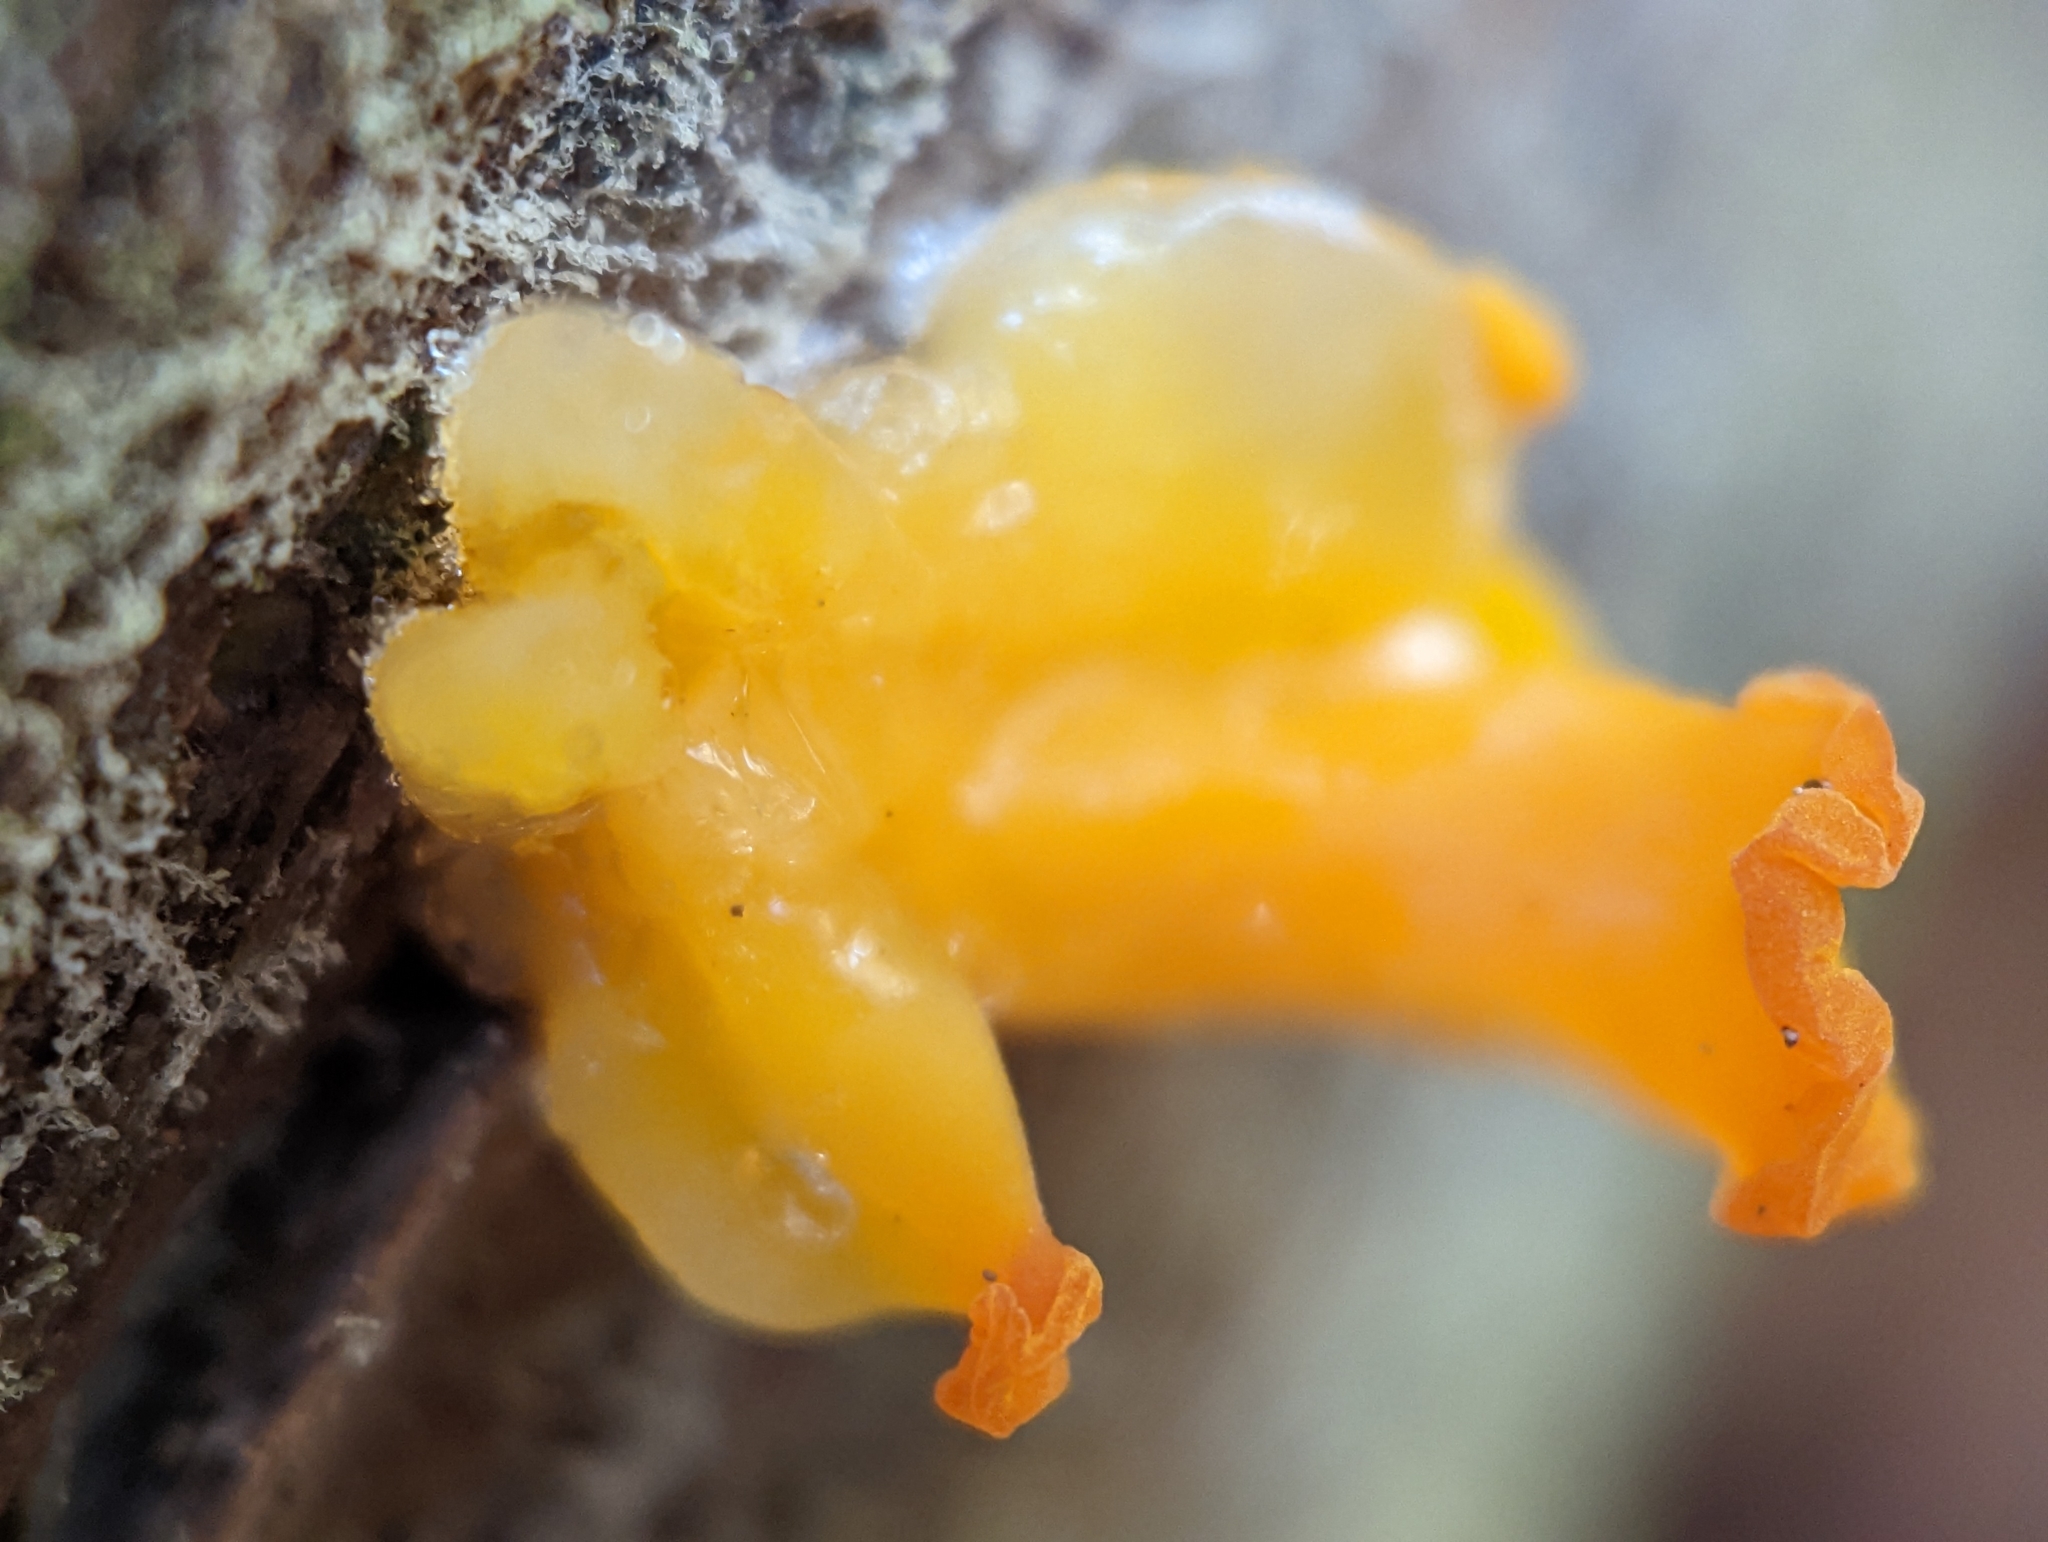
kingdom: Fungi
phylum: Basidiomycota
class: Dacrymycetes
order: Dacrymycetales
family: Dacrymycetaceae
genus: Dacrymyces
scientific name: Dacrymyces spathularius
